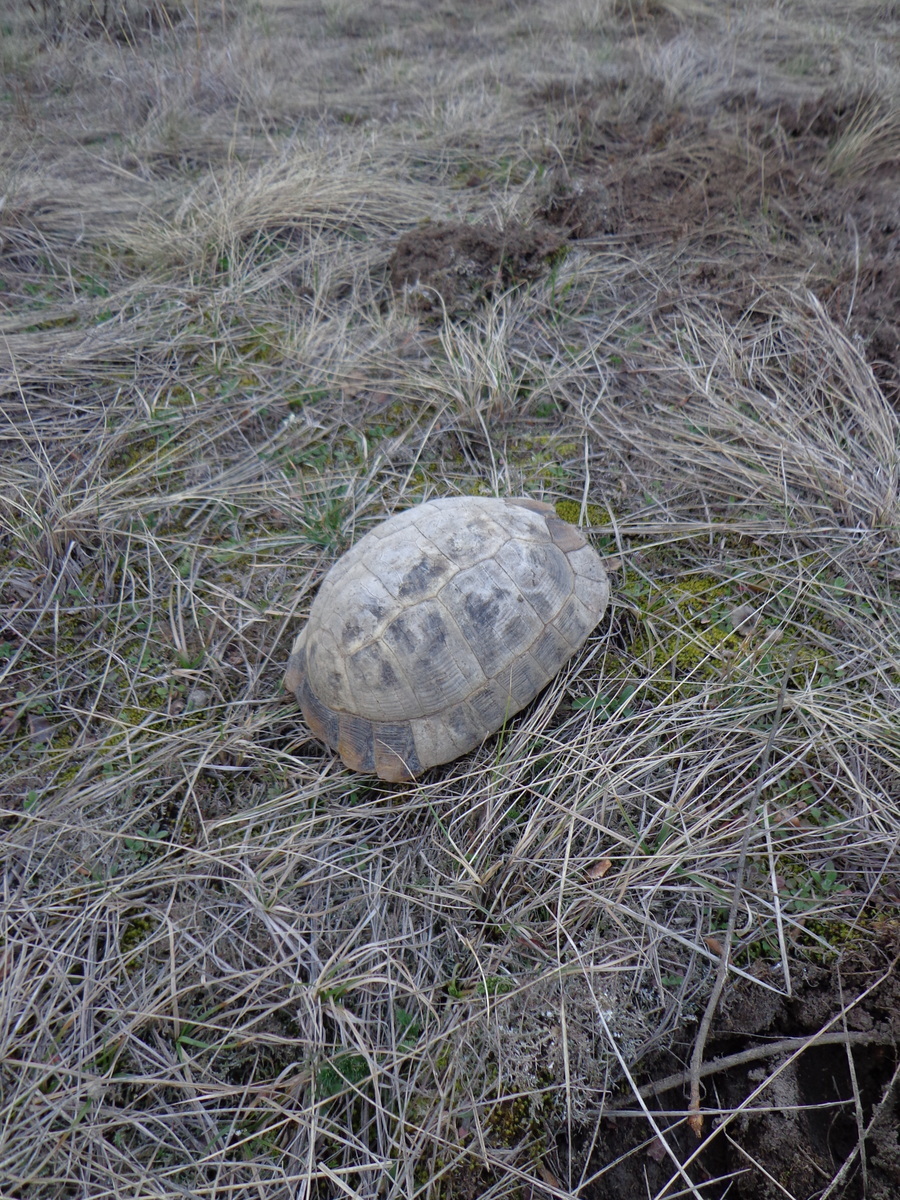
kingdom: Animalia
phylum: Chordata
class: Testudines
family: Testudinidae
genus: Testudo
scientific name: Testudo graeca
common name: Common tortoise
